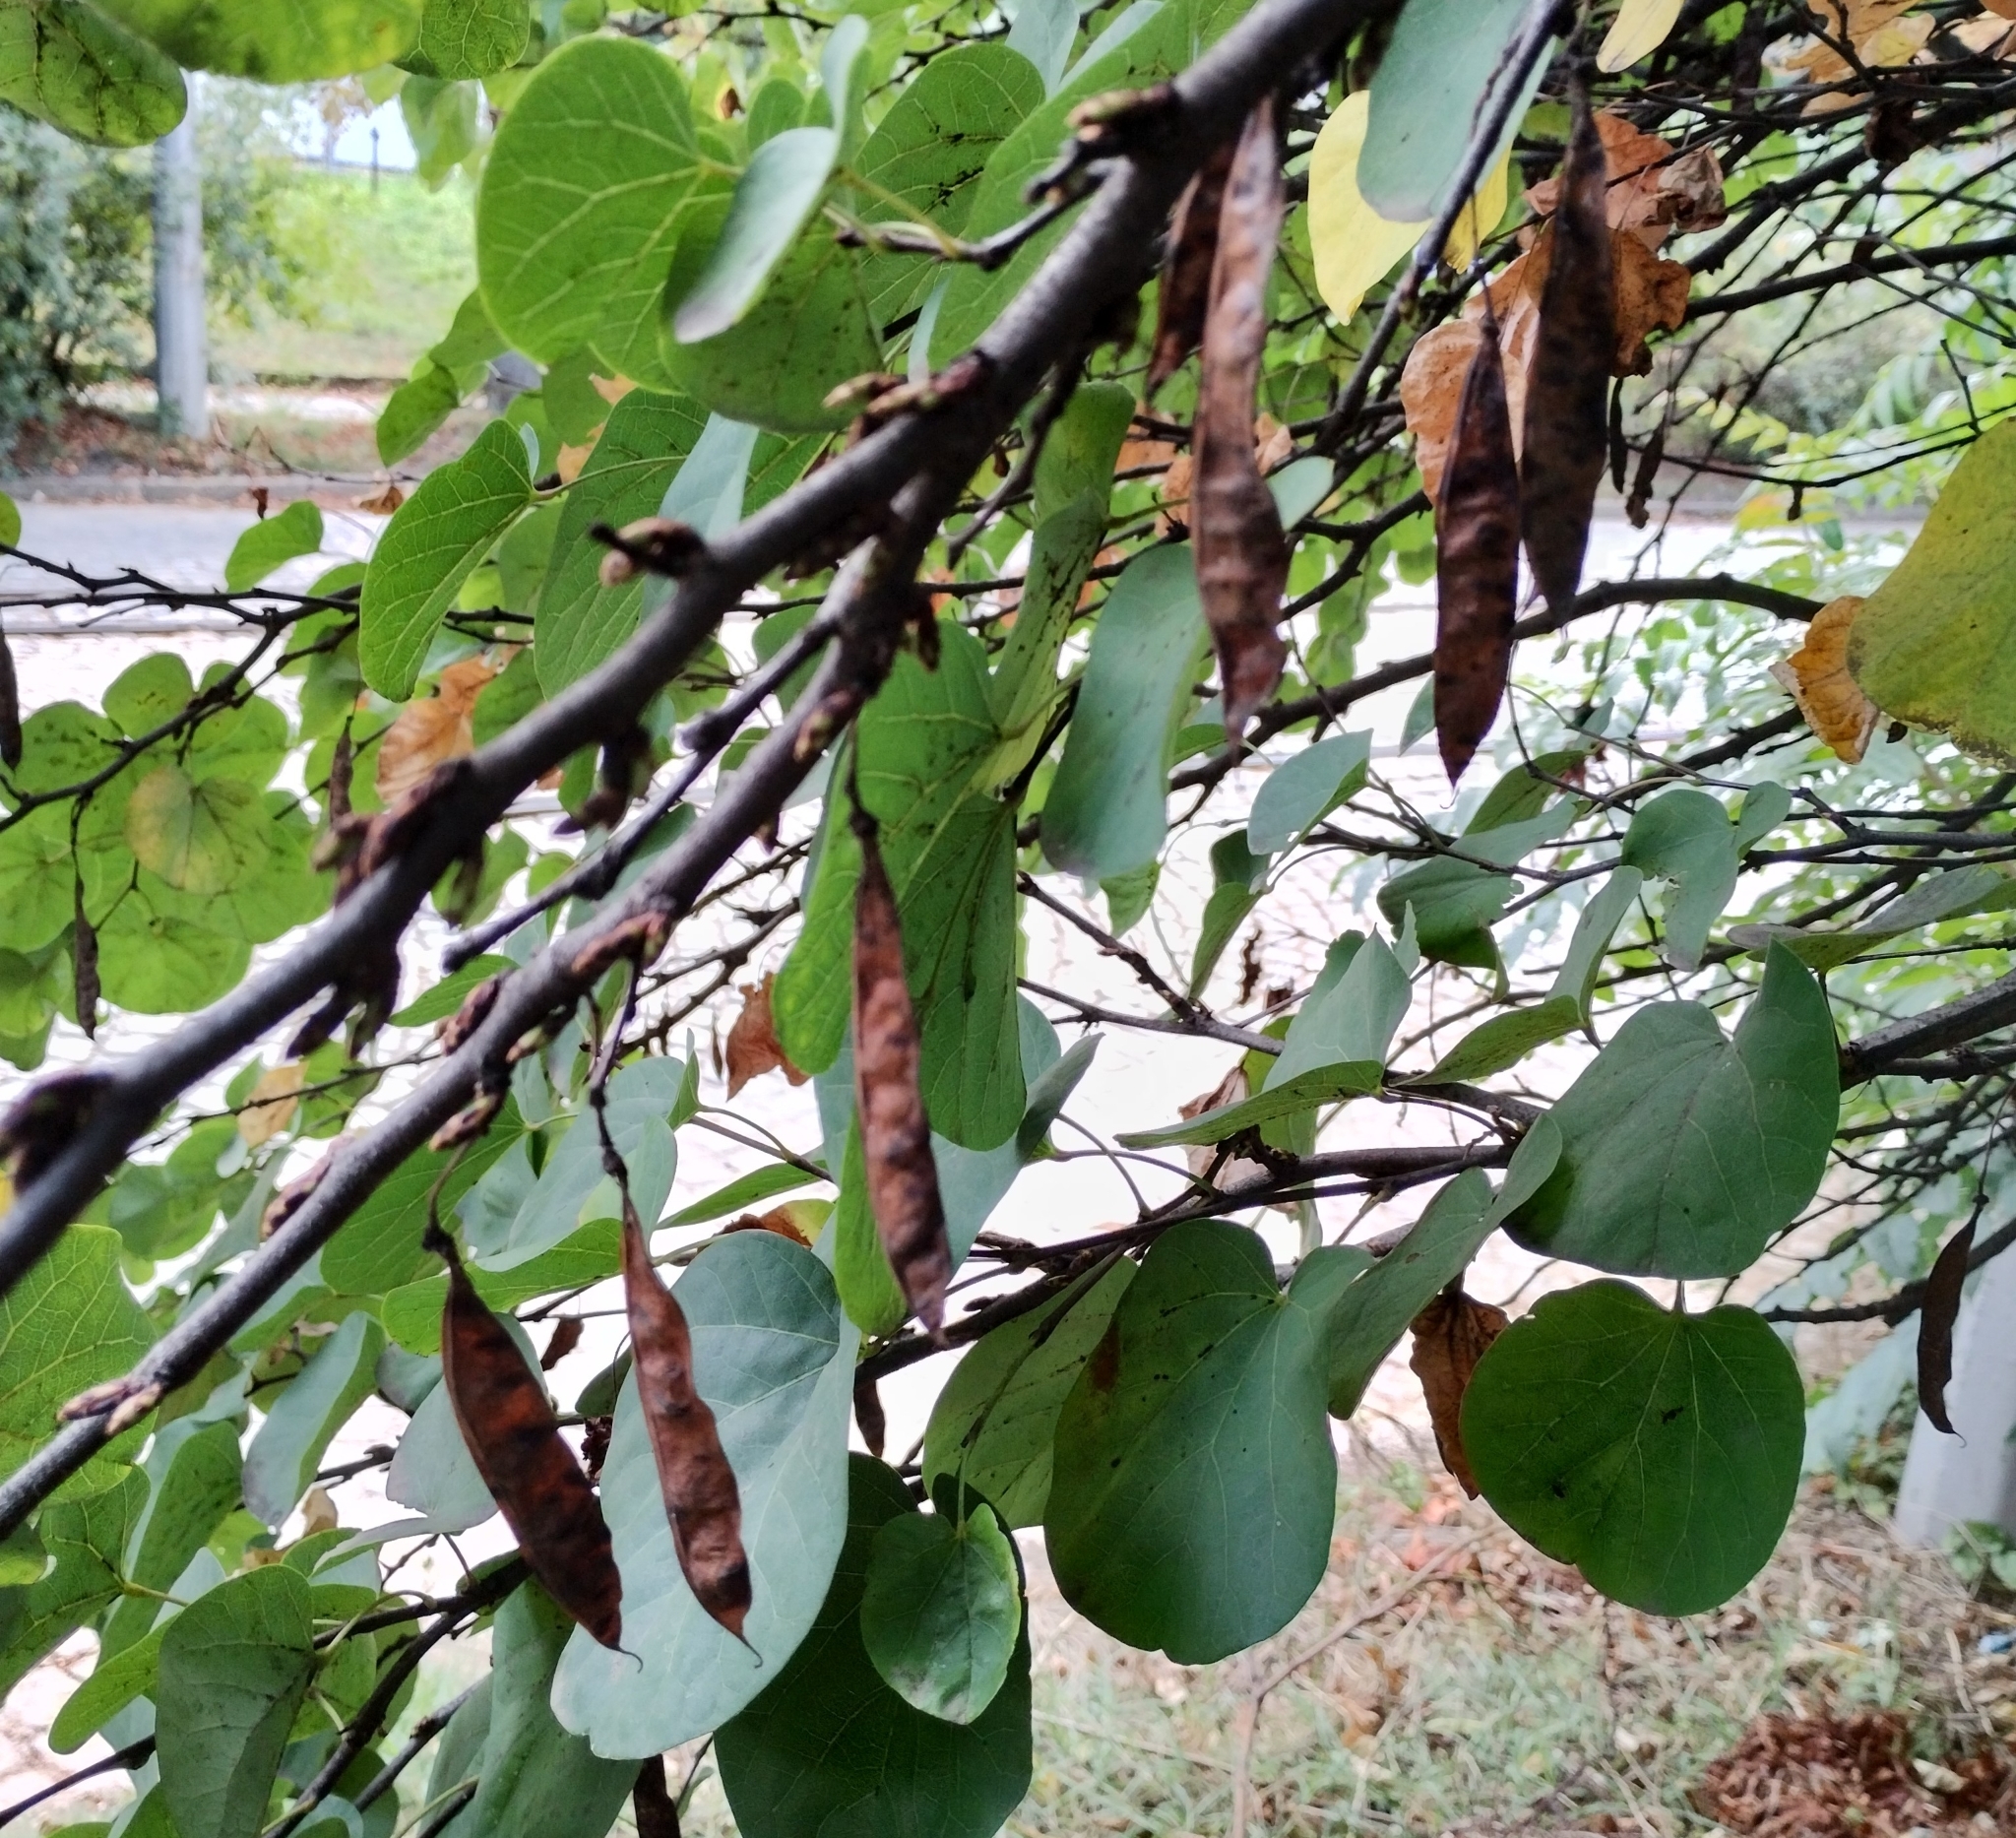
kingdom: Plantae
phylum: Tracheophyta
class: Magnoliopsida
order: Fabales
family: Fabaceae
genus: Cercis
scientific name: Cercis siliquastrum
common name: Judas tree
